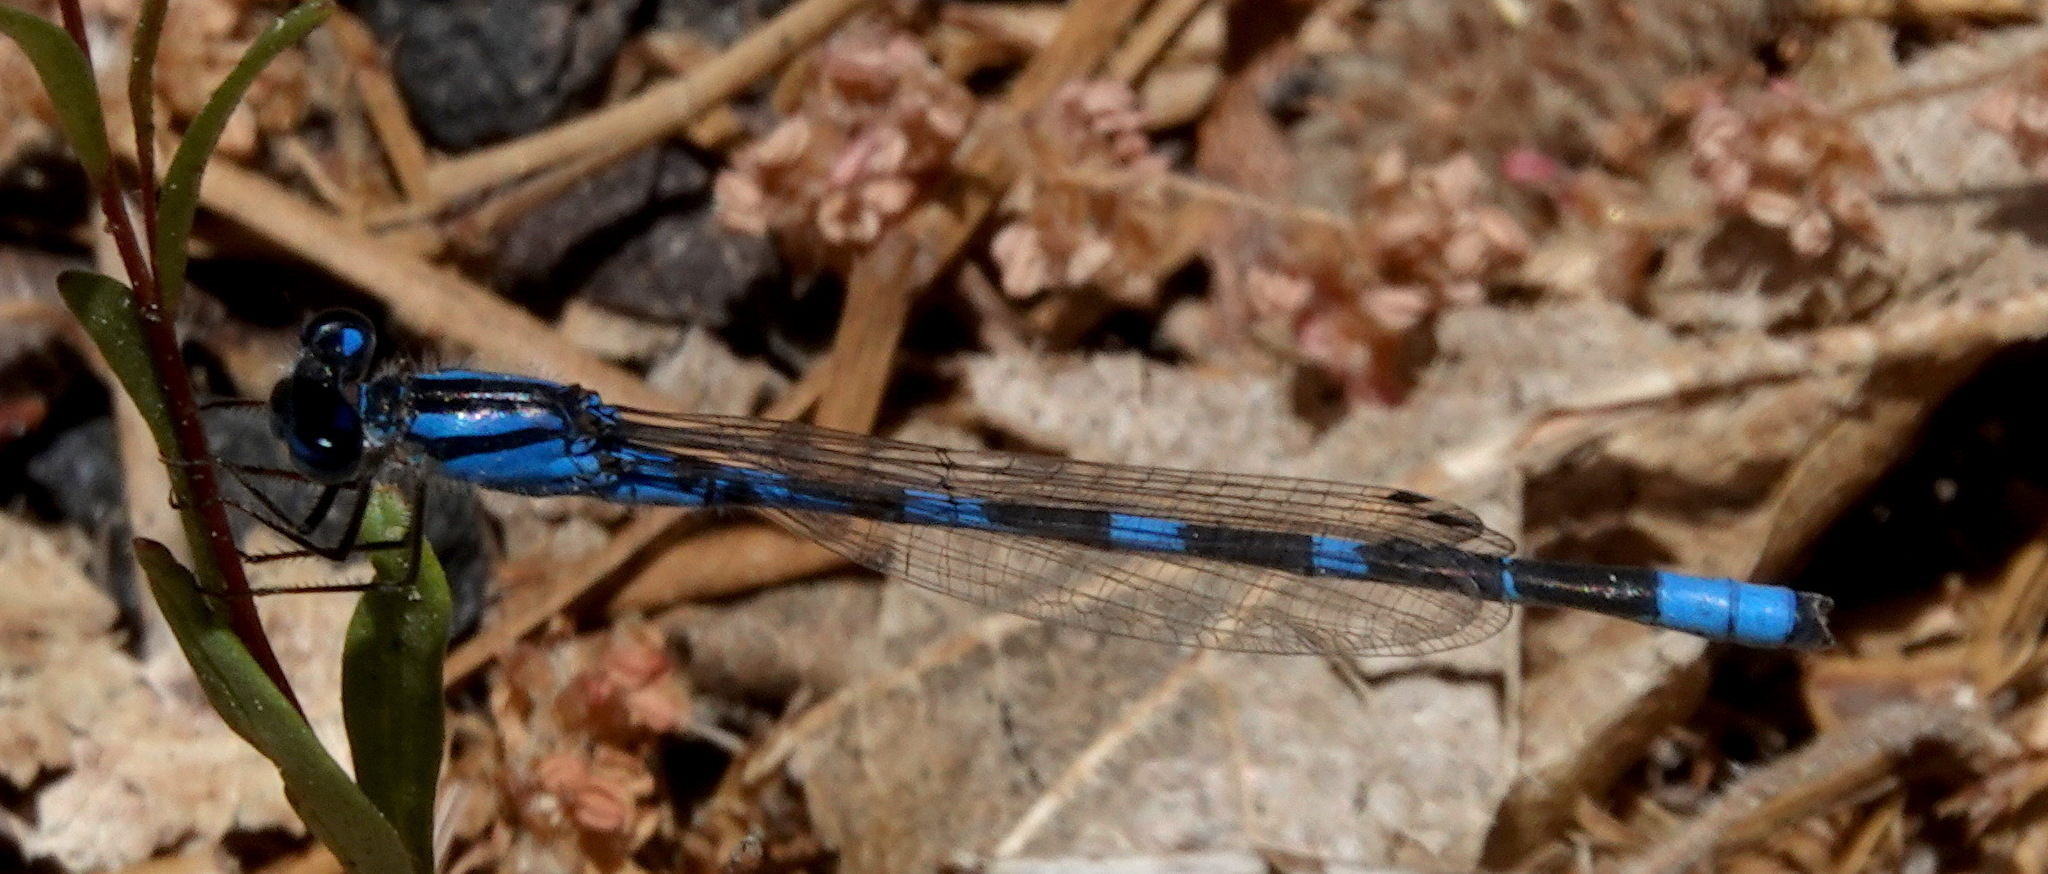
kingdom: Animalia
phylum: Arthropoda
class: Insecta
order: Odonata
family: Coenagrionidae
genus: Enallagma
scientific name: Enallagma carunculatum
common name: Tule bluet
